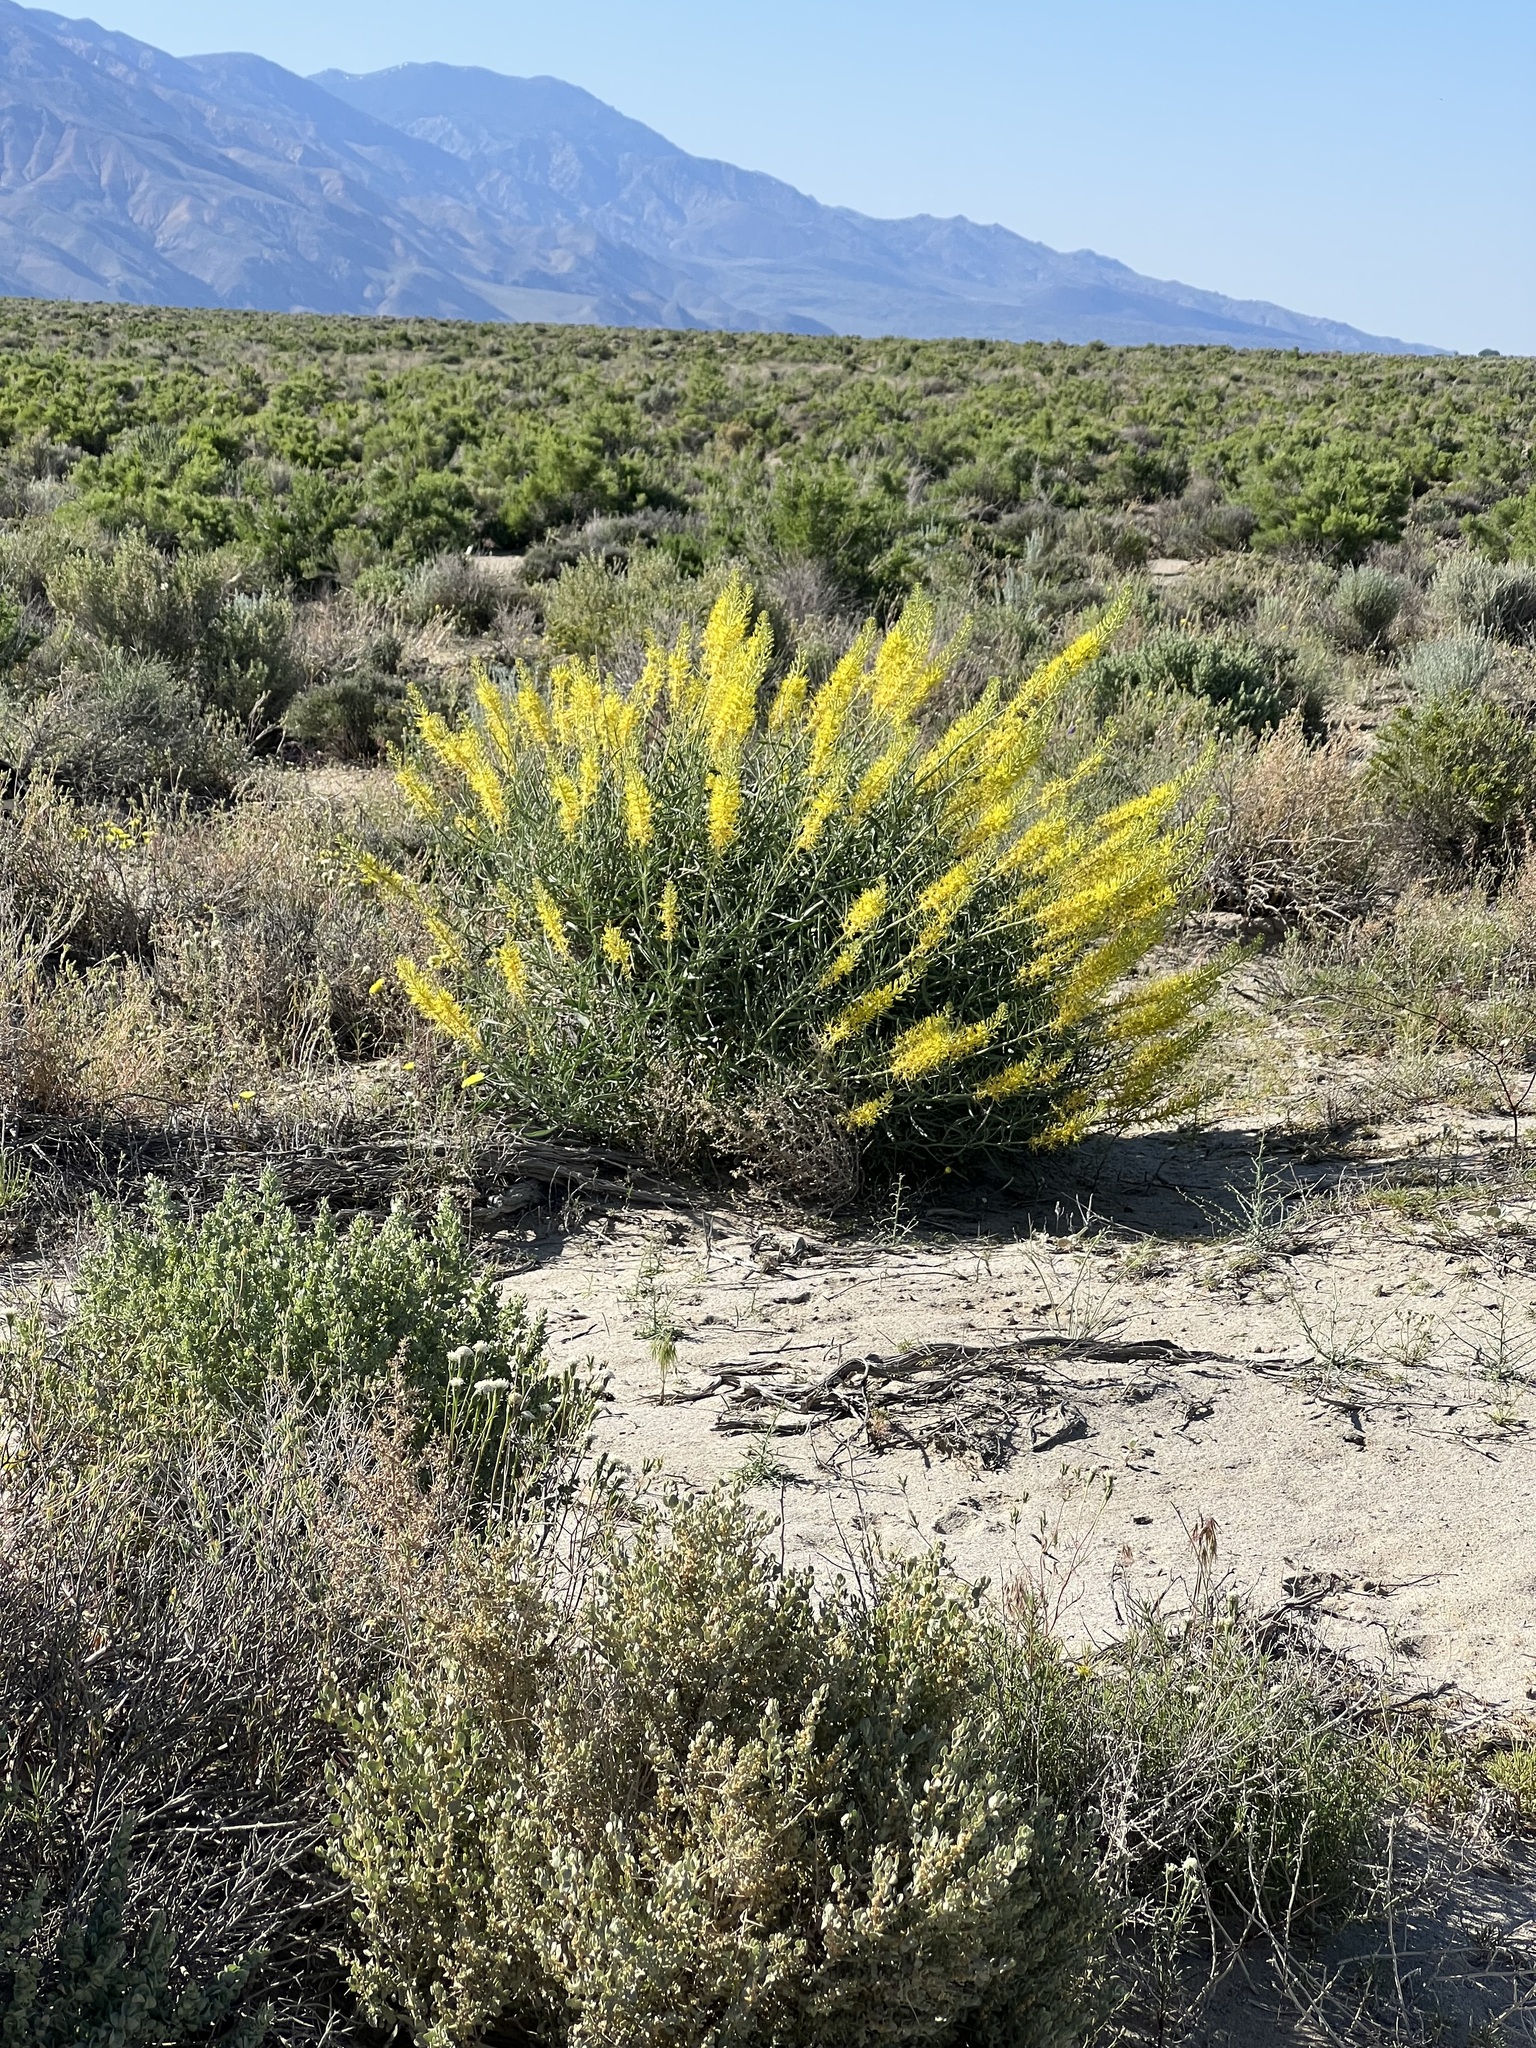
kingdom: Plantae
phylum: Tracheophyta
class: Magnoliopsida
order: Brassicales
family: Brassicaceae
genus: Stanleya
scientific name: Stanleya pinnata
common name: Prince's-plume
